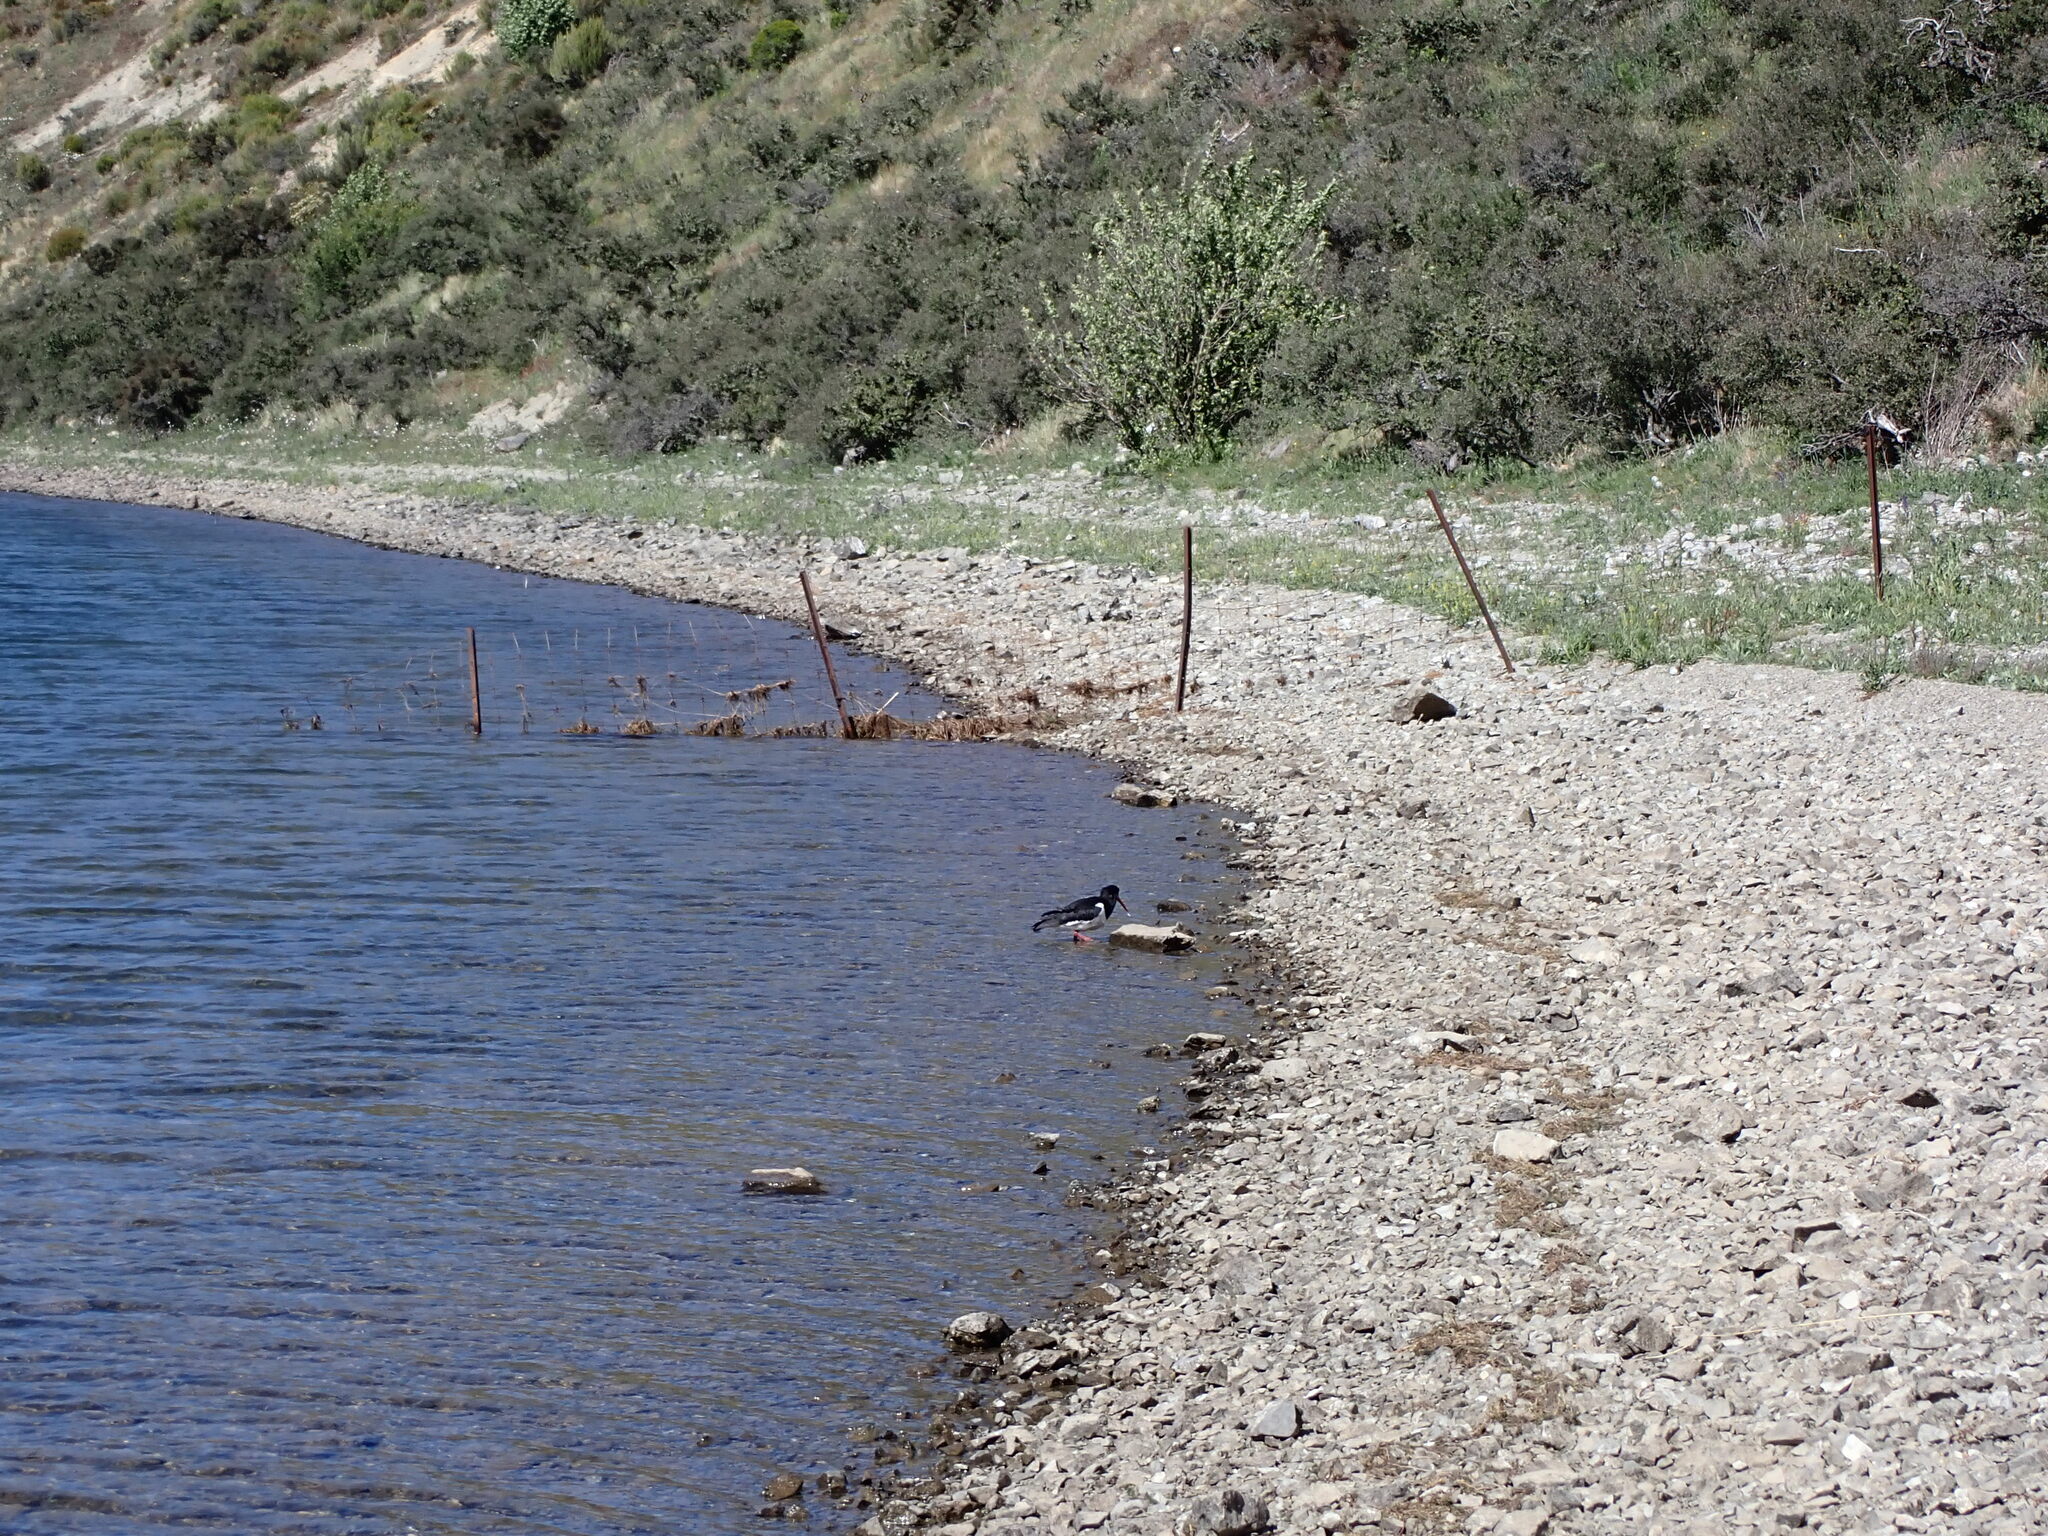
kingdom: Animalia
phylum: Chordata
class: Aves
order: Charadriiformes
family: Haematopodidae
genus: Haematopus
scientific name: Haematopus finschi
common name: South island oystercatcher
